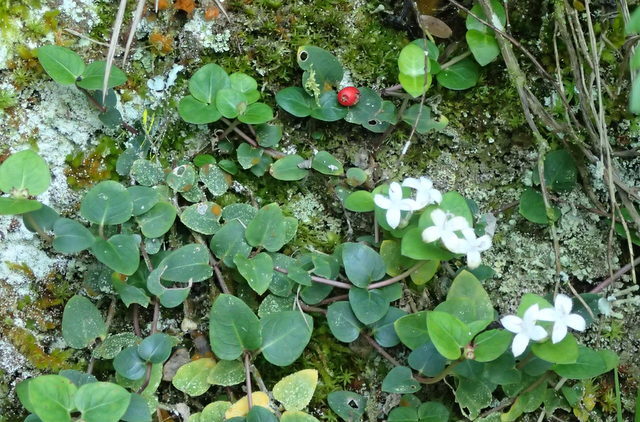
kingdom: Plantae
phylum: Tracheophyta
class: Magnoliopsida
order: Gentianales
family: Rubiaceae
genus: Mitchella
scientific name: Mitchella repens
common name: Partridge-berry
